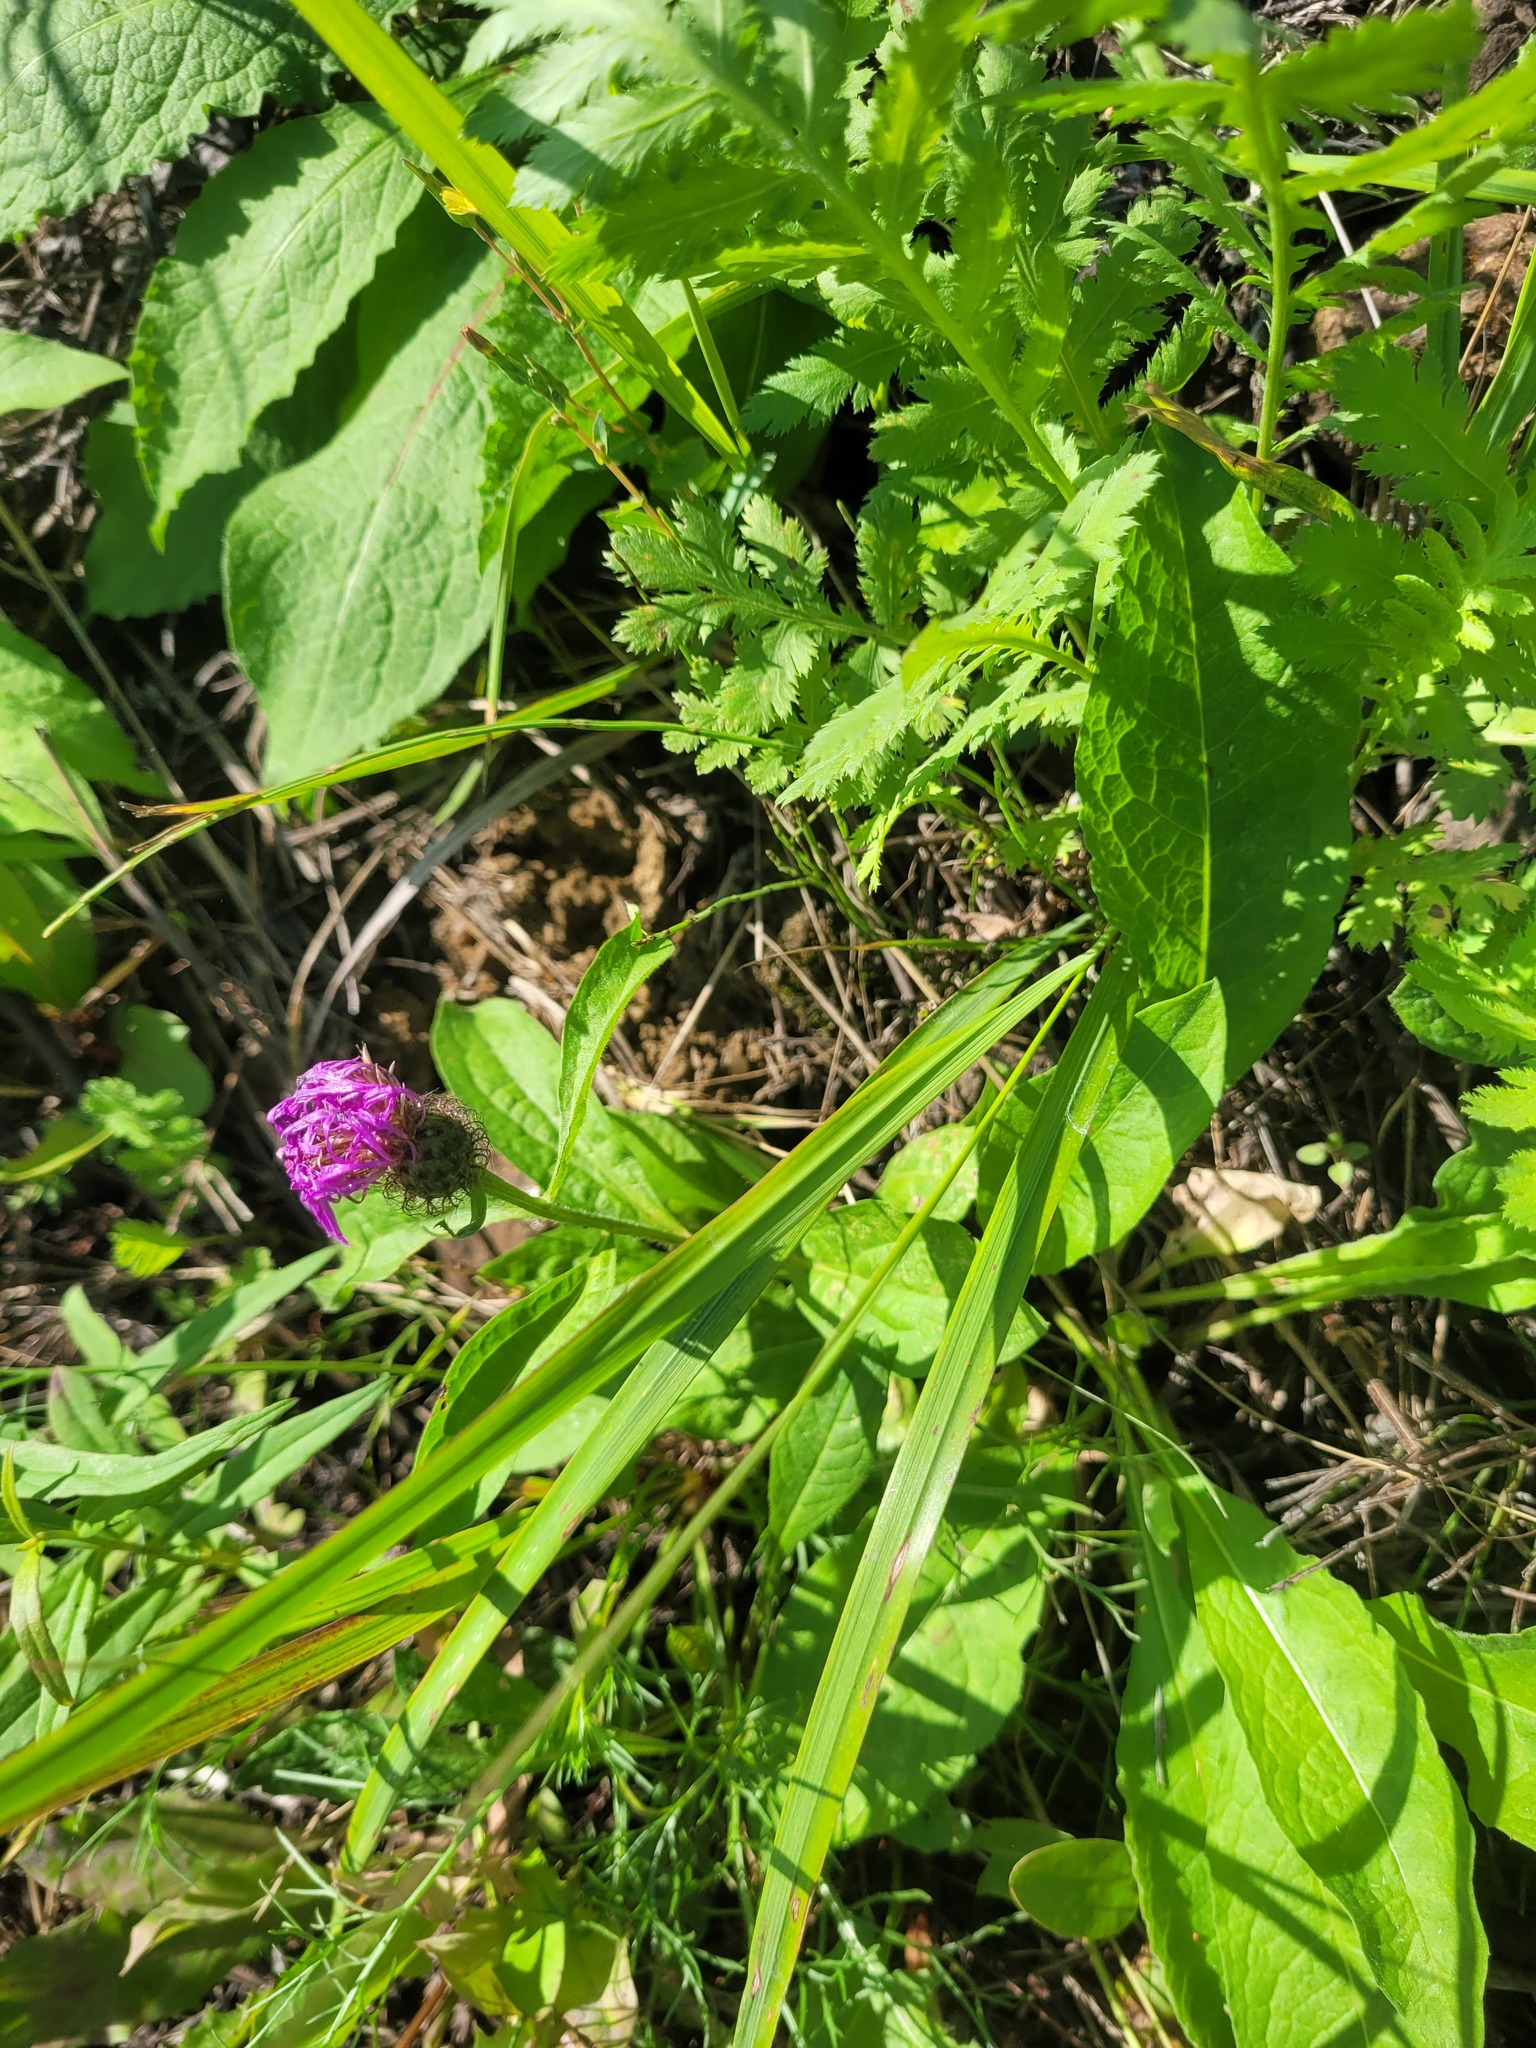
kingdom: Plantae
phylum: Tracheophyta
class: Magnoliopsida
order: Asterales
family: Asteraceae
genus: Centaurea
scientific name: Centaurea pseudophrygia
